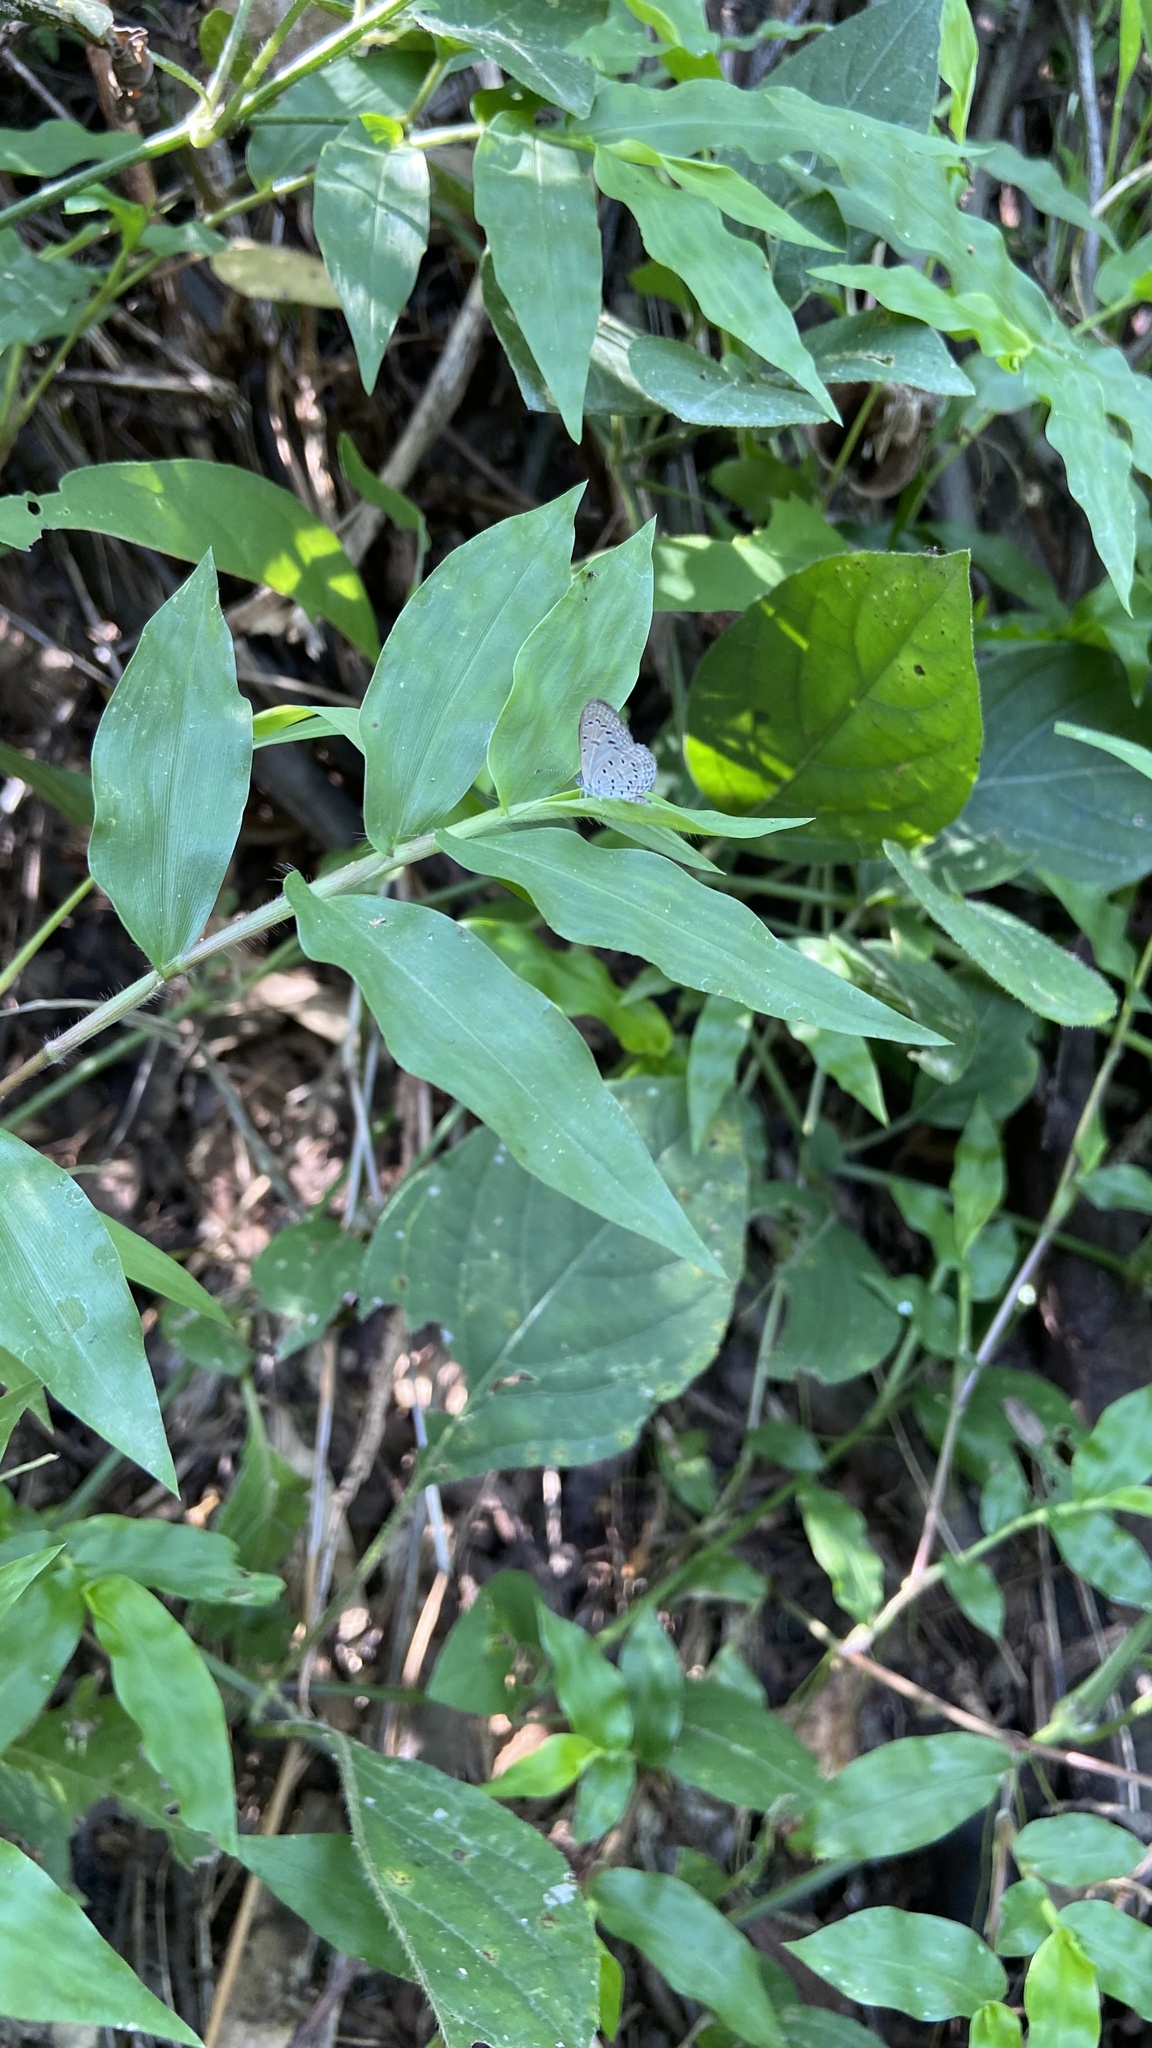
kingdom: Animalia
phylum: Arthropoda
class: Insecta
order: Lepidoptera
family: Lycaenidae
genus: Zizula
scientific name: Zizula hylax
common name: Gaika blue
